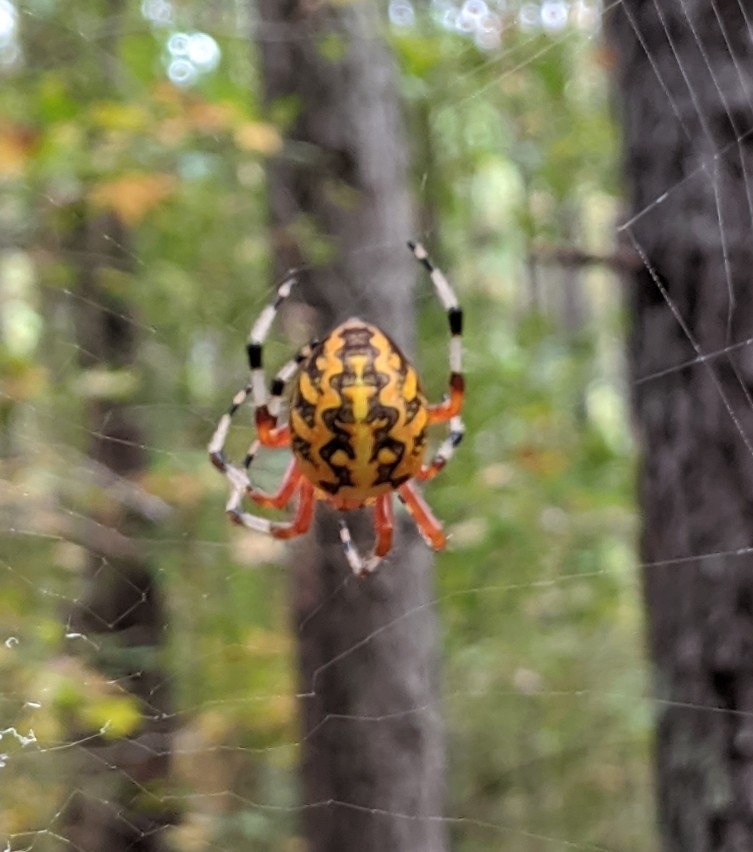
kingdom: Animalia
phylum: Arthropoda
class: Arachnida
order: Araneae
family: Araneidae
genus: Araneus
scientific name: Araneus marmoreus
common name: Marbled orbweaver
